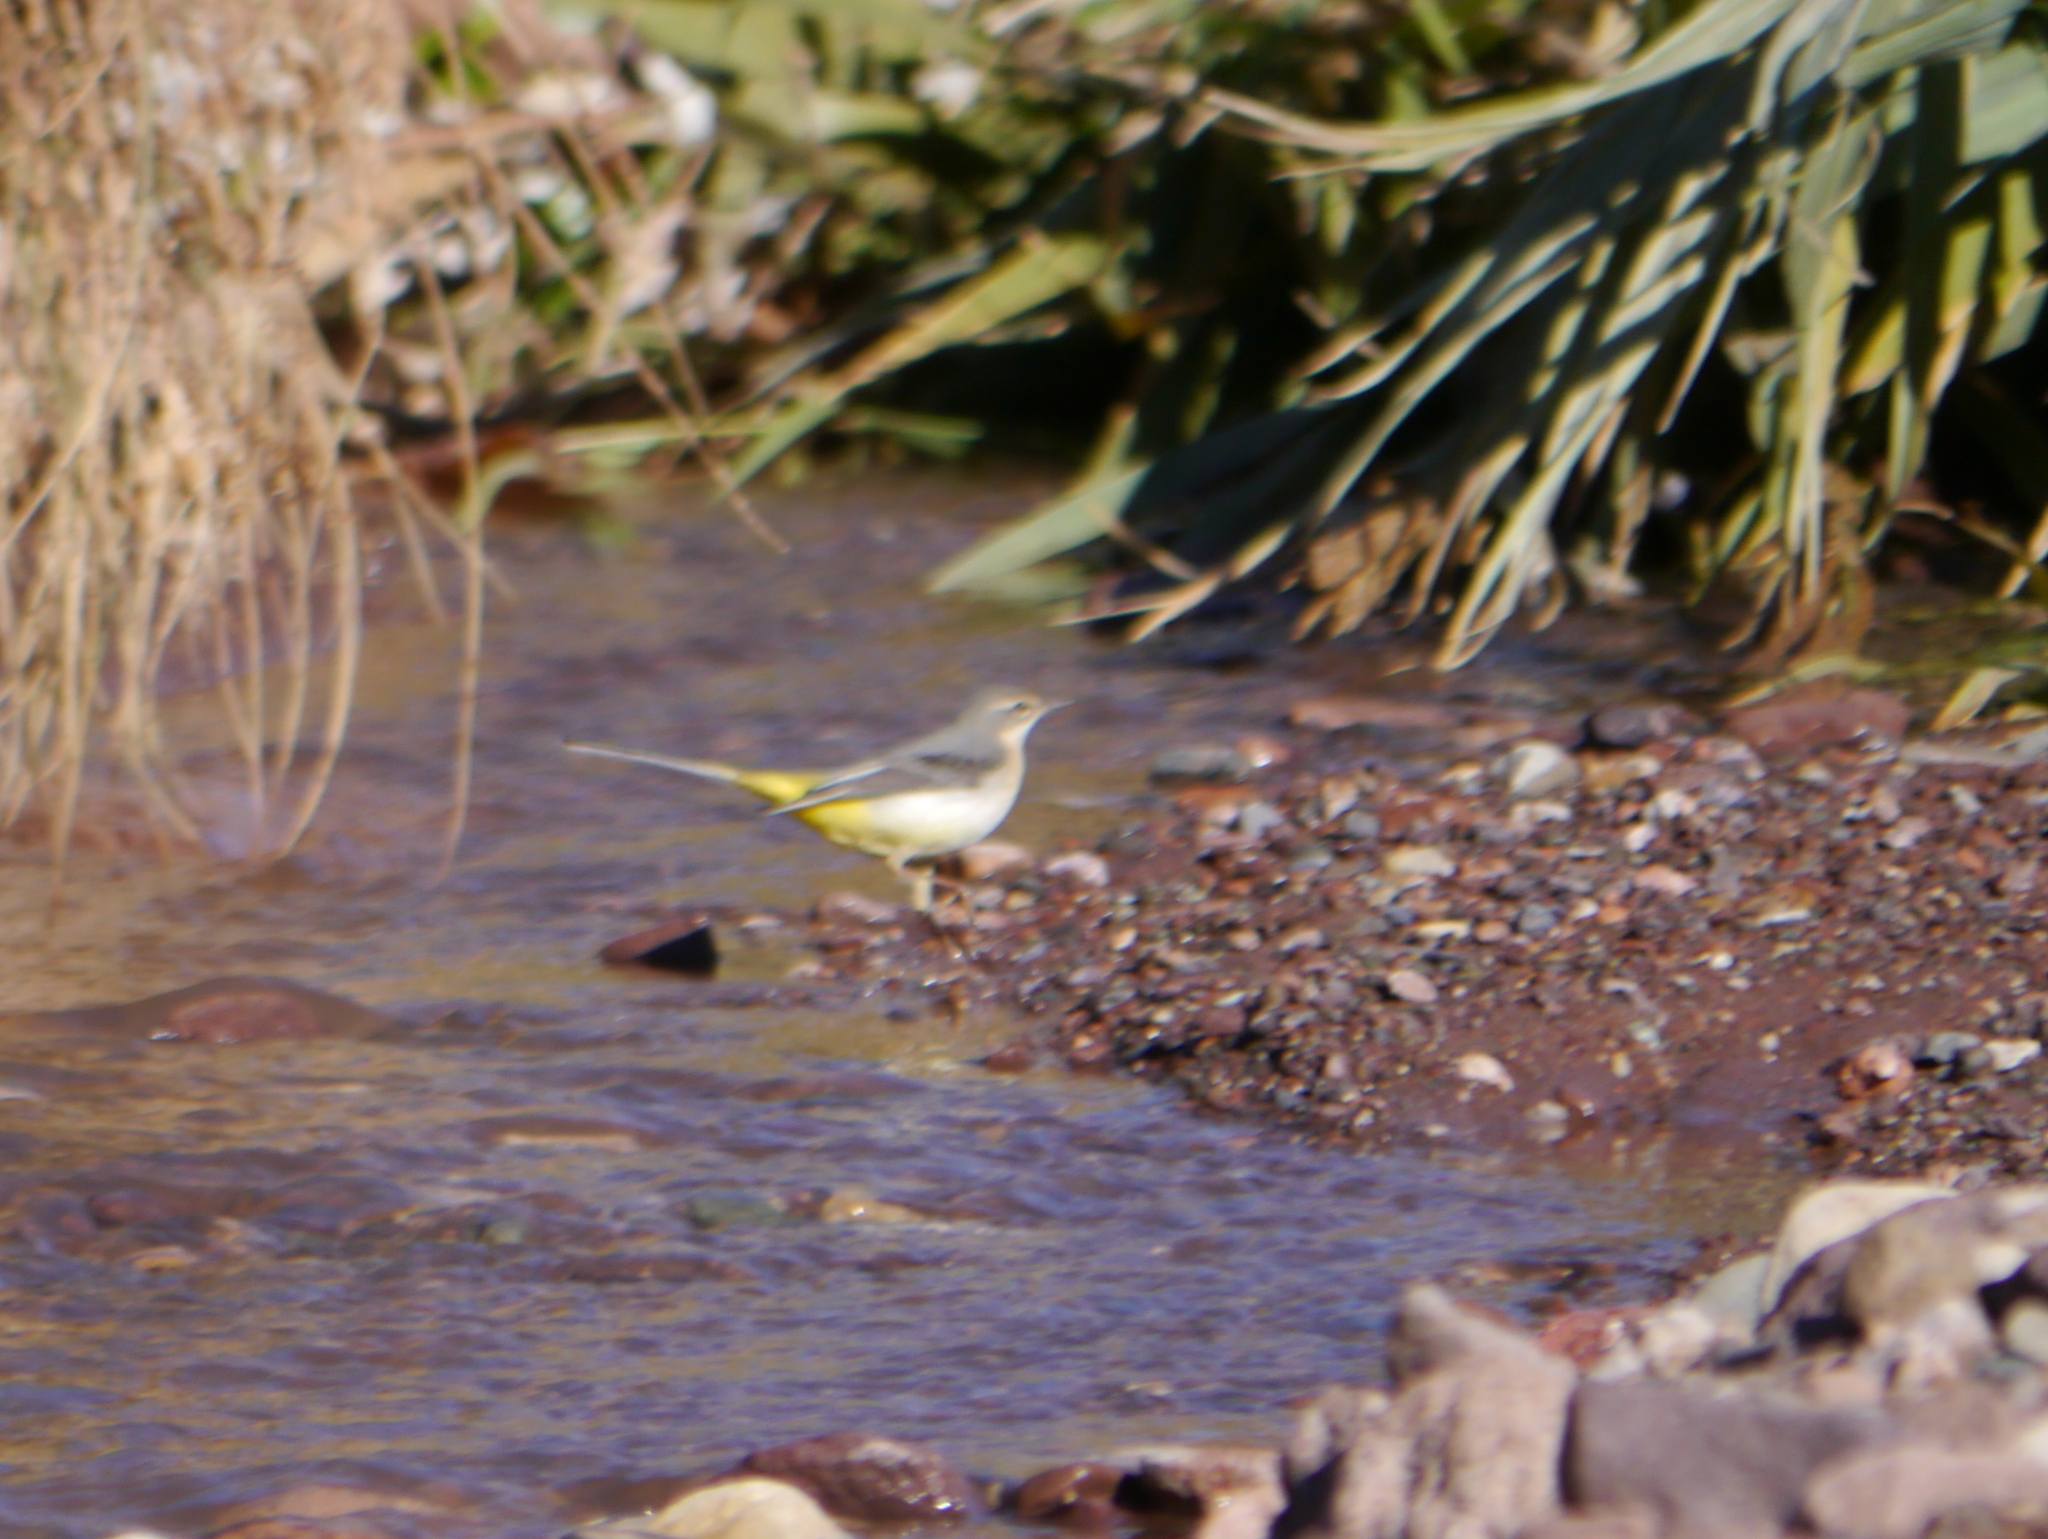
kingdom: Animalia
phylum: Chordata
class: Aves
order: Passeriformes
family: Motacillidae
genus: Motacilla
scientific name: Motacilla cinerea
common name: Grey wagtail
